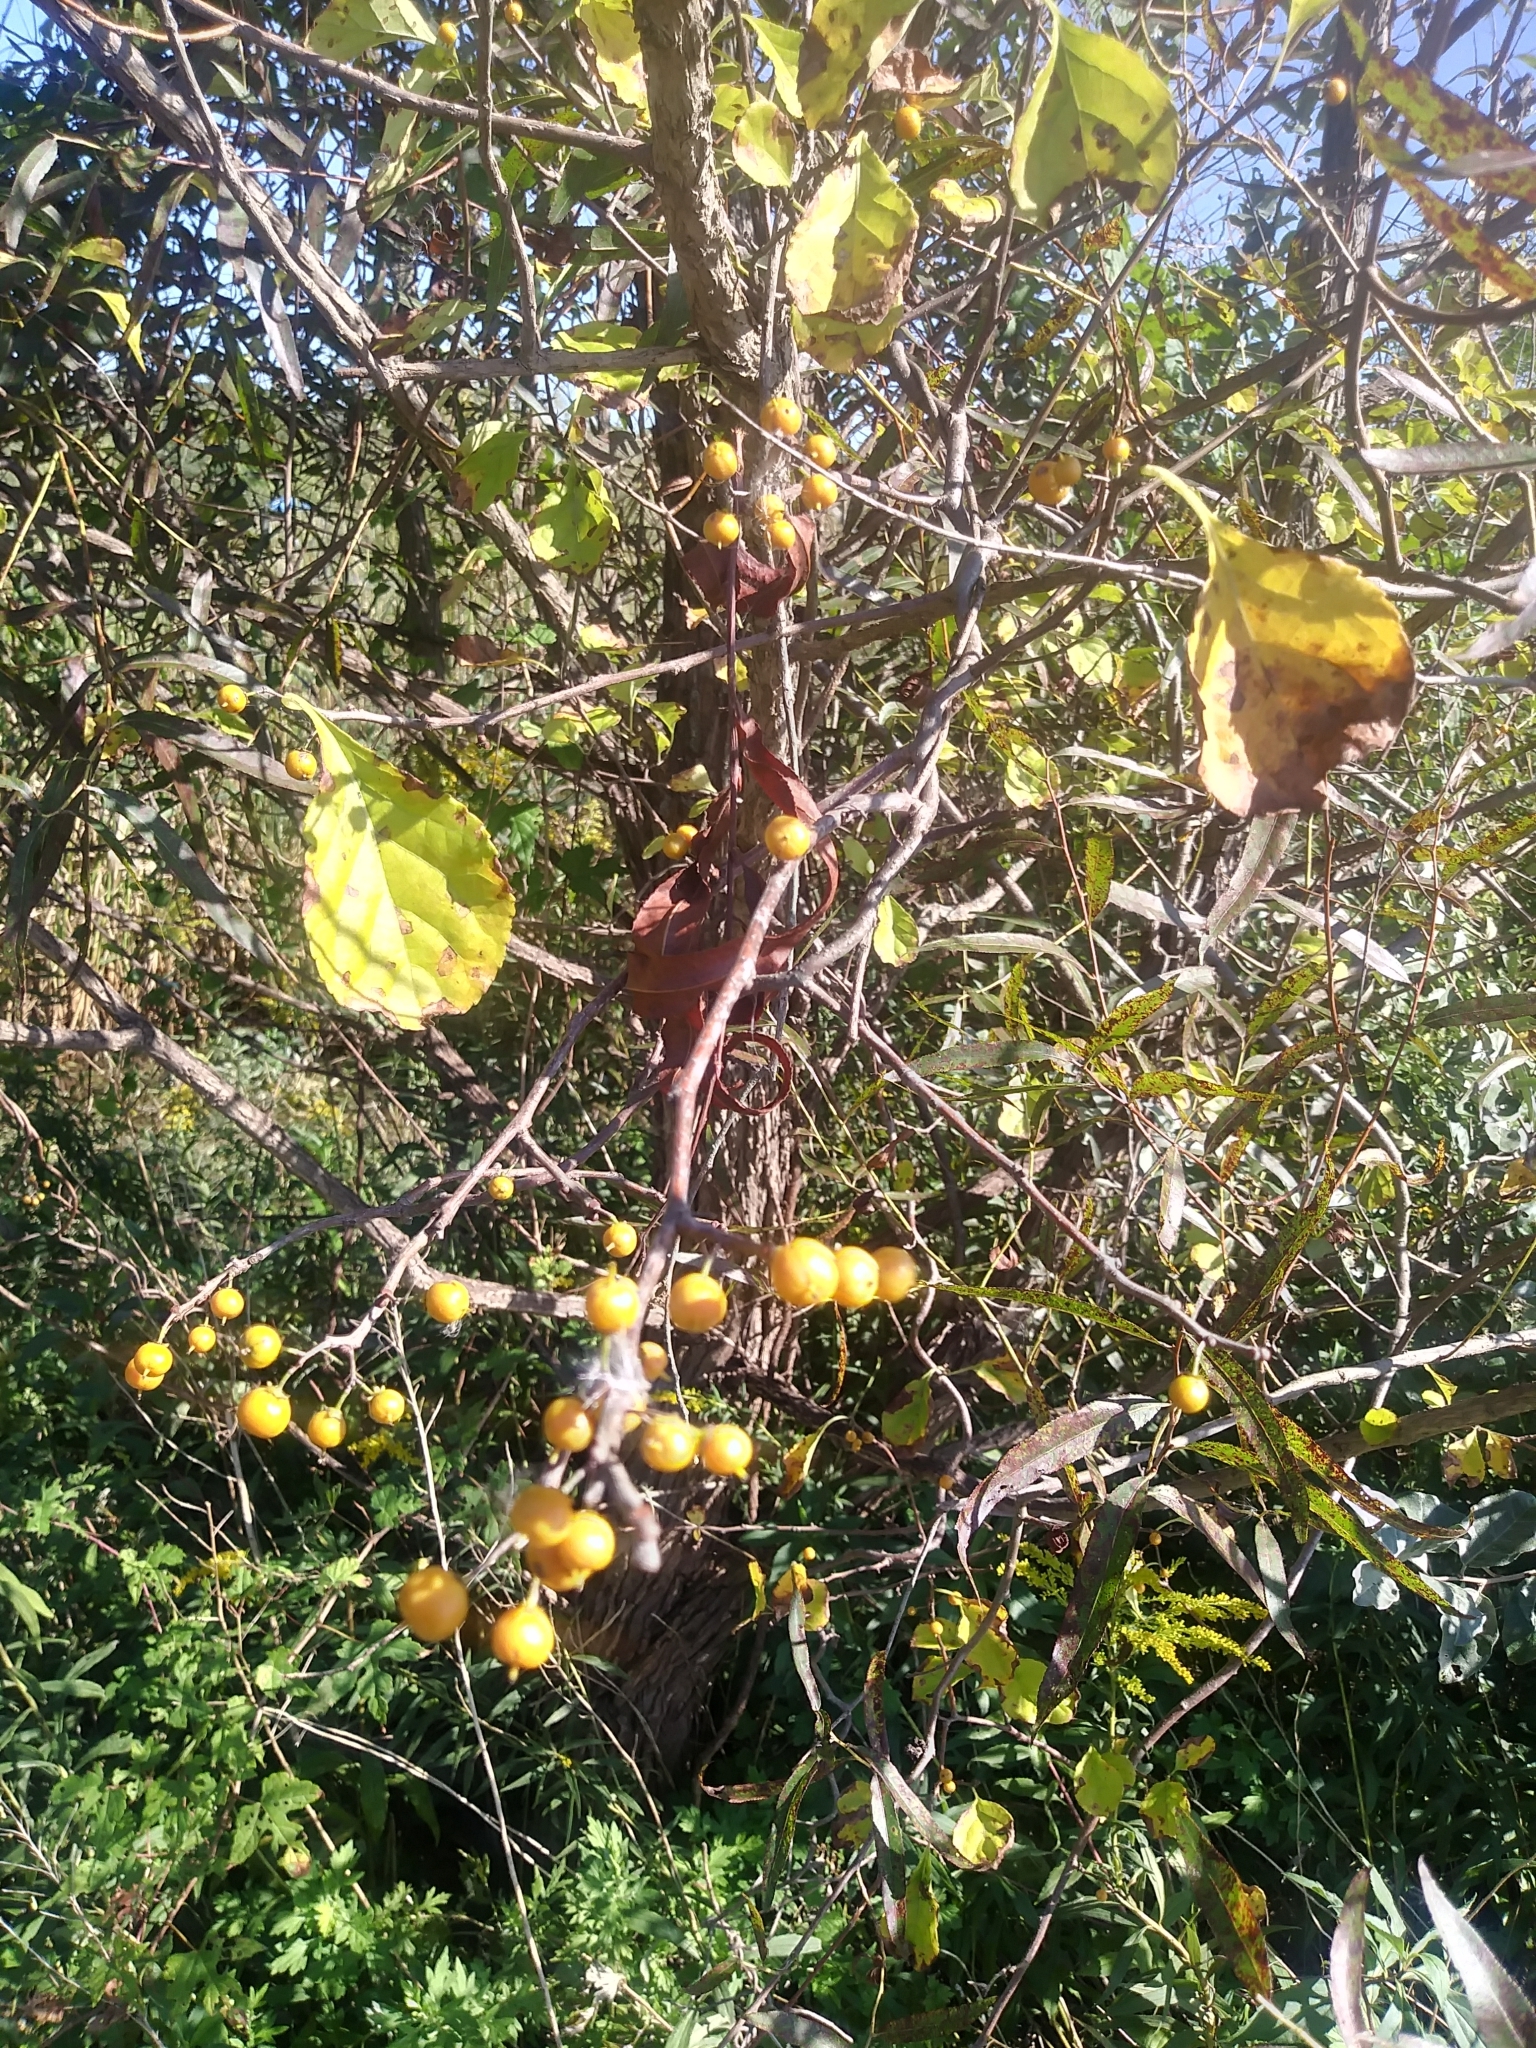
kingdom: Plantae
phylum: Tracheophyta
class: Magnoliopsida
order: Celastrales
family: Celastraceae
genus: Celastrus
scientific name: Celastrus orbiculatus
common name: Oriental bittersweet
